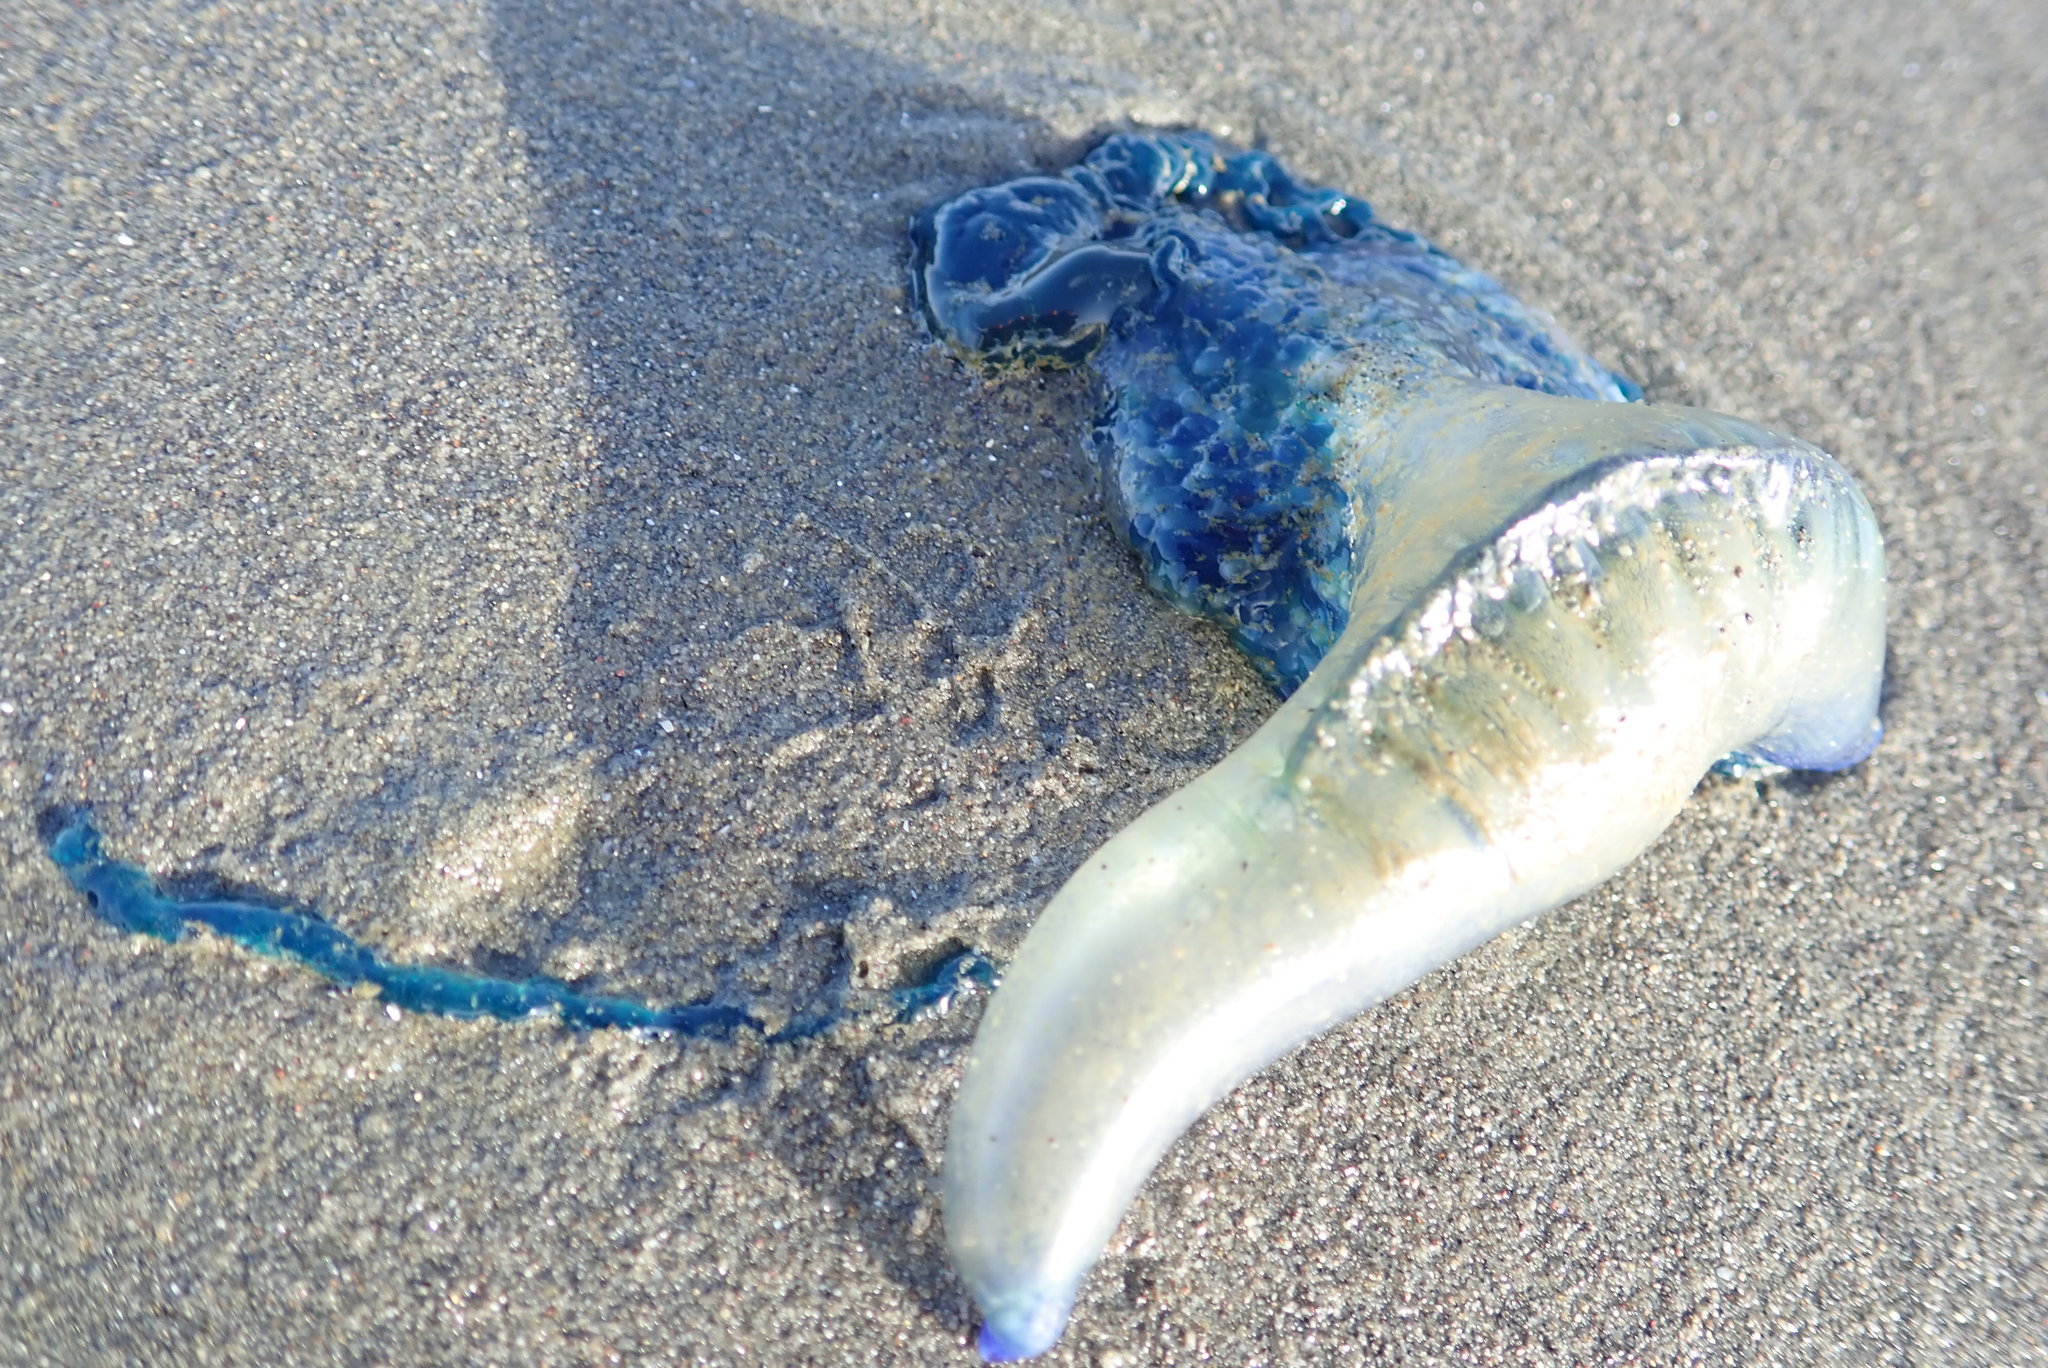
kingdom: Animalia
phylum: Cnidaria
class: Hydrozoa
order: Siphonophorae
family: Physaliidae
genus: Physalia
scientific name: Physalia physalis
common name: Portuguese man-of-war
